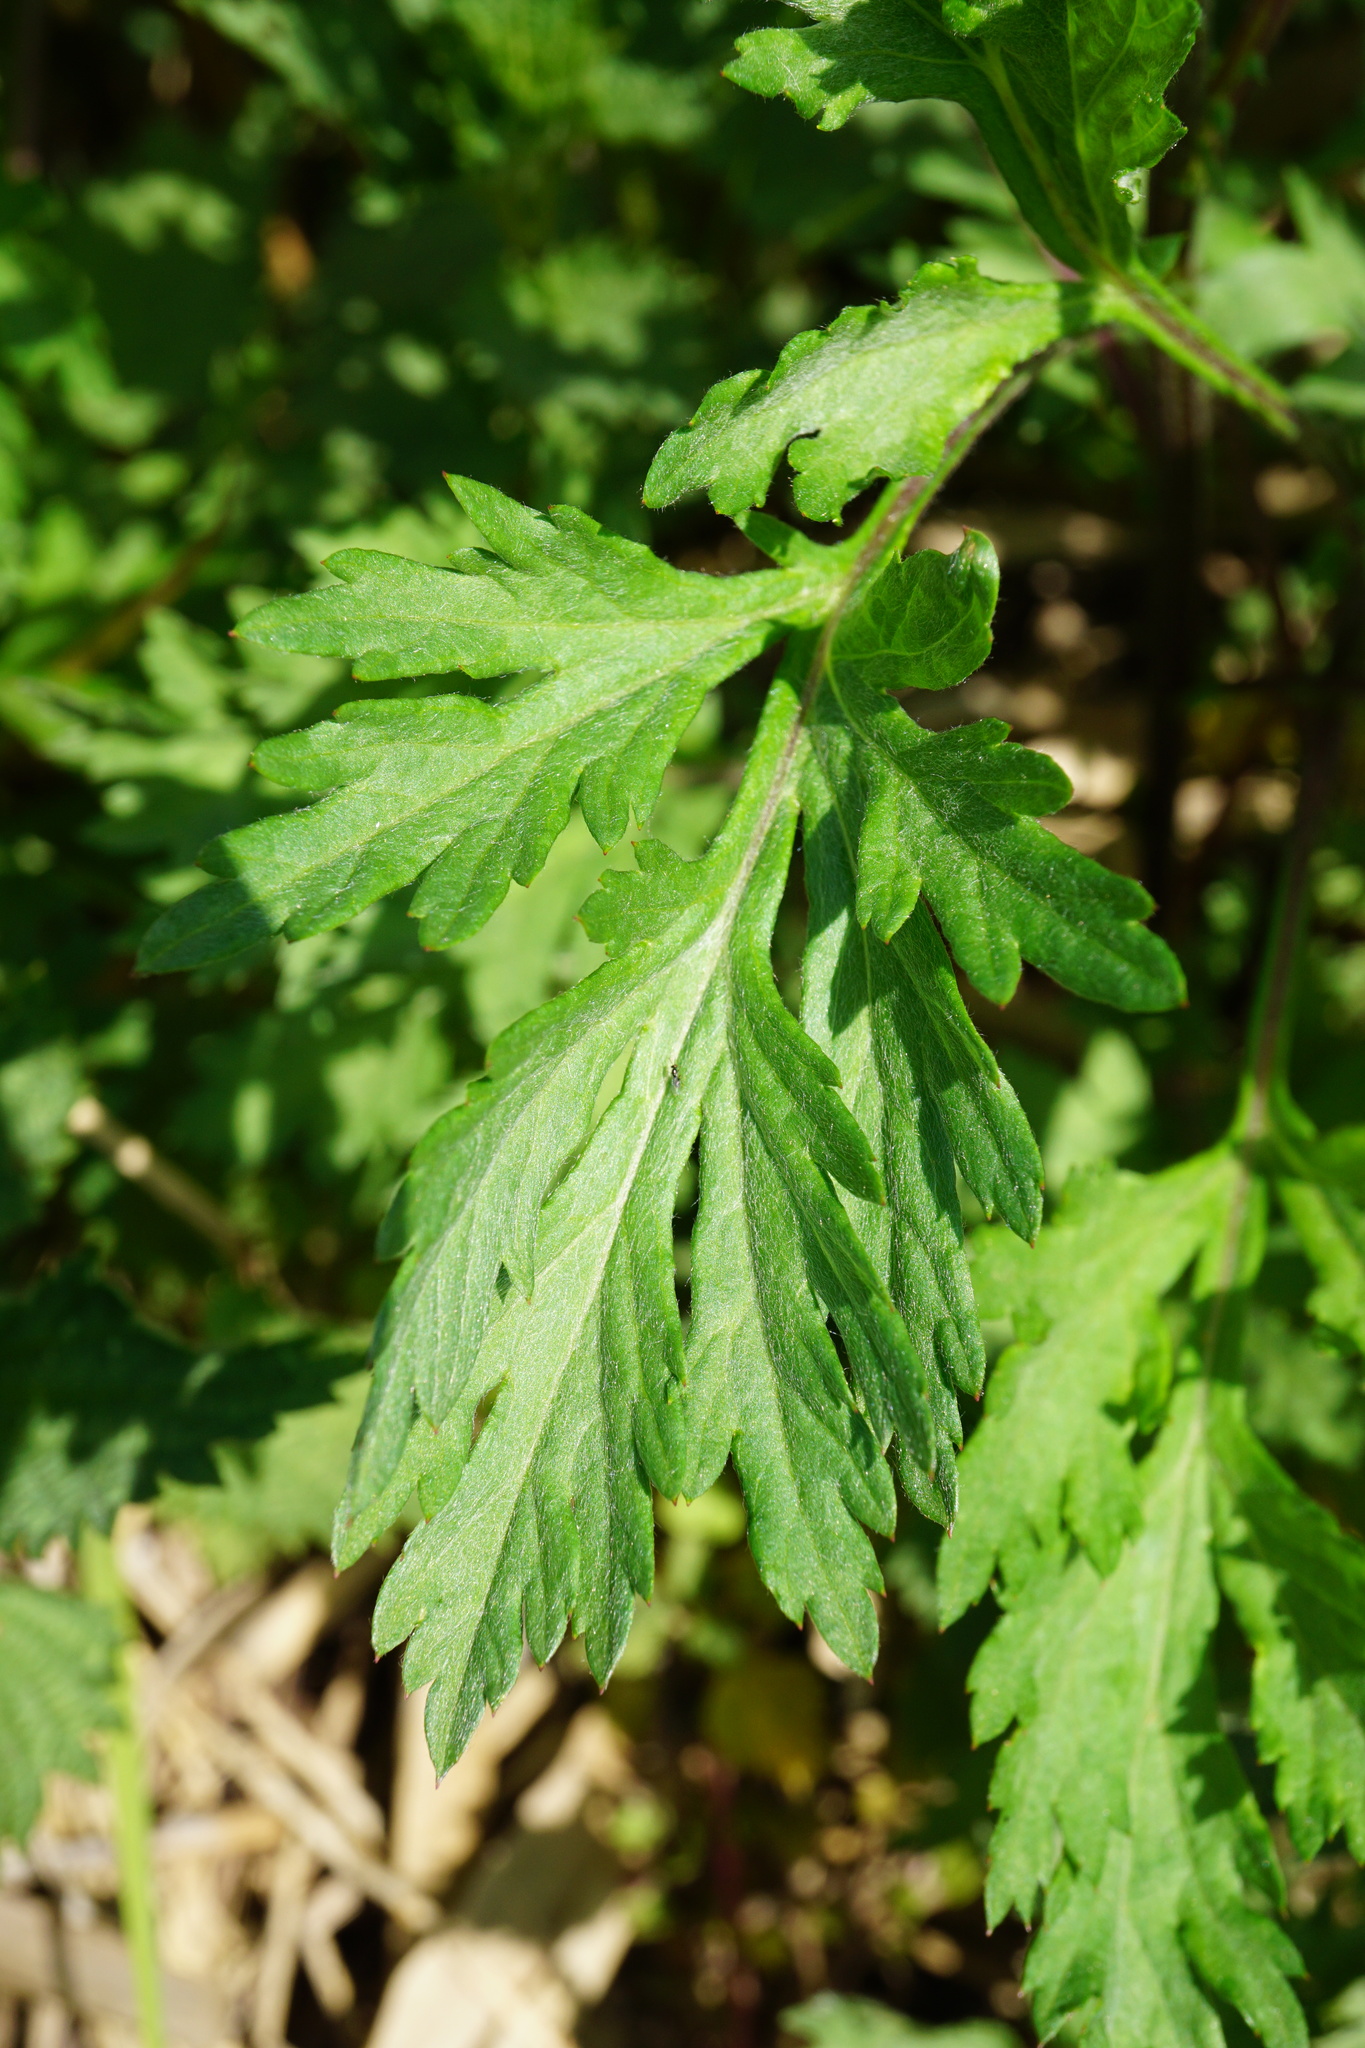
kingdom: Plantae
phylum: Tracheophyta
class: Magnoliopsida
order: Asterales
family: Asteraceae
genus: Artemisia
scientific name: Artemisia vulgaris
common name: Mugwort
